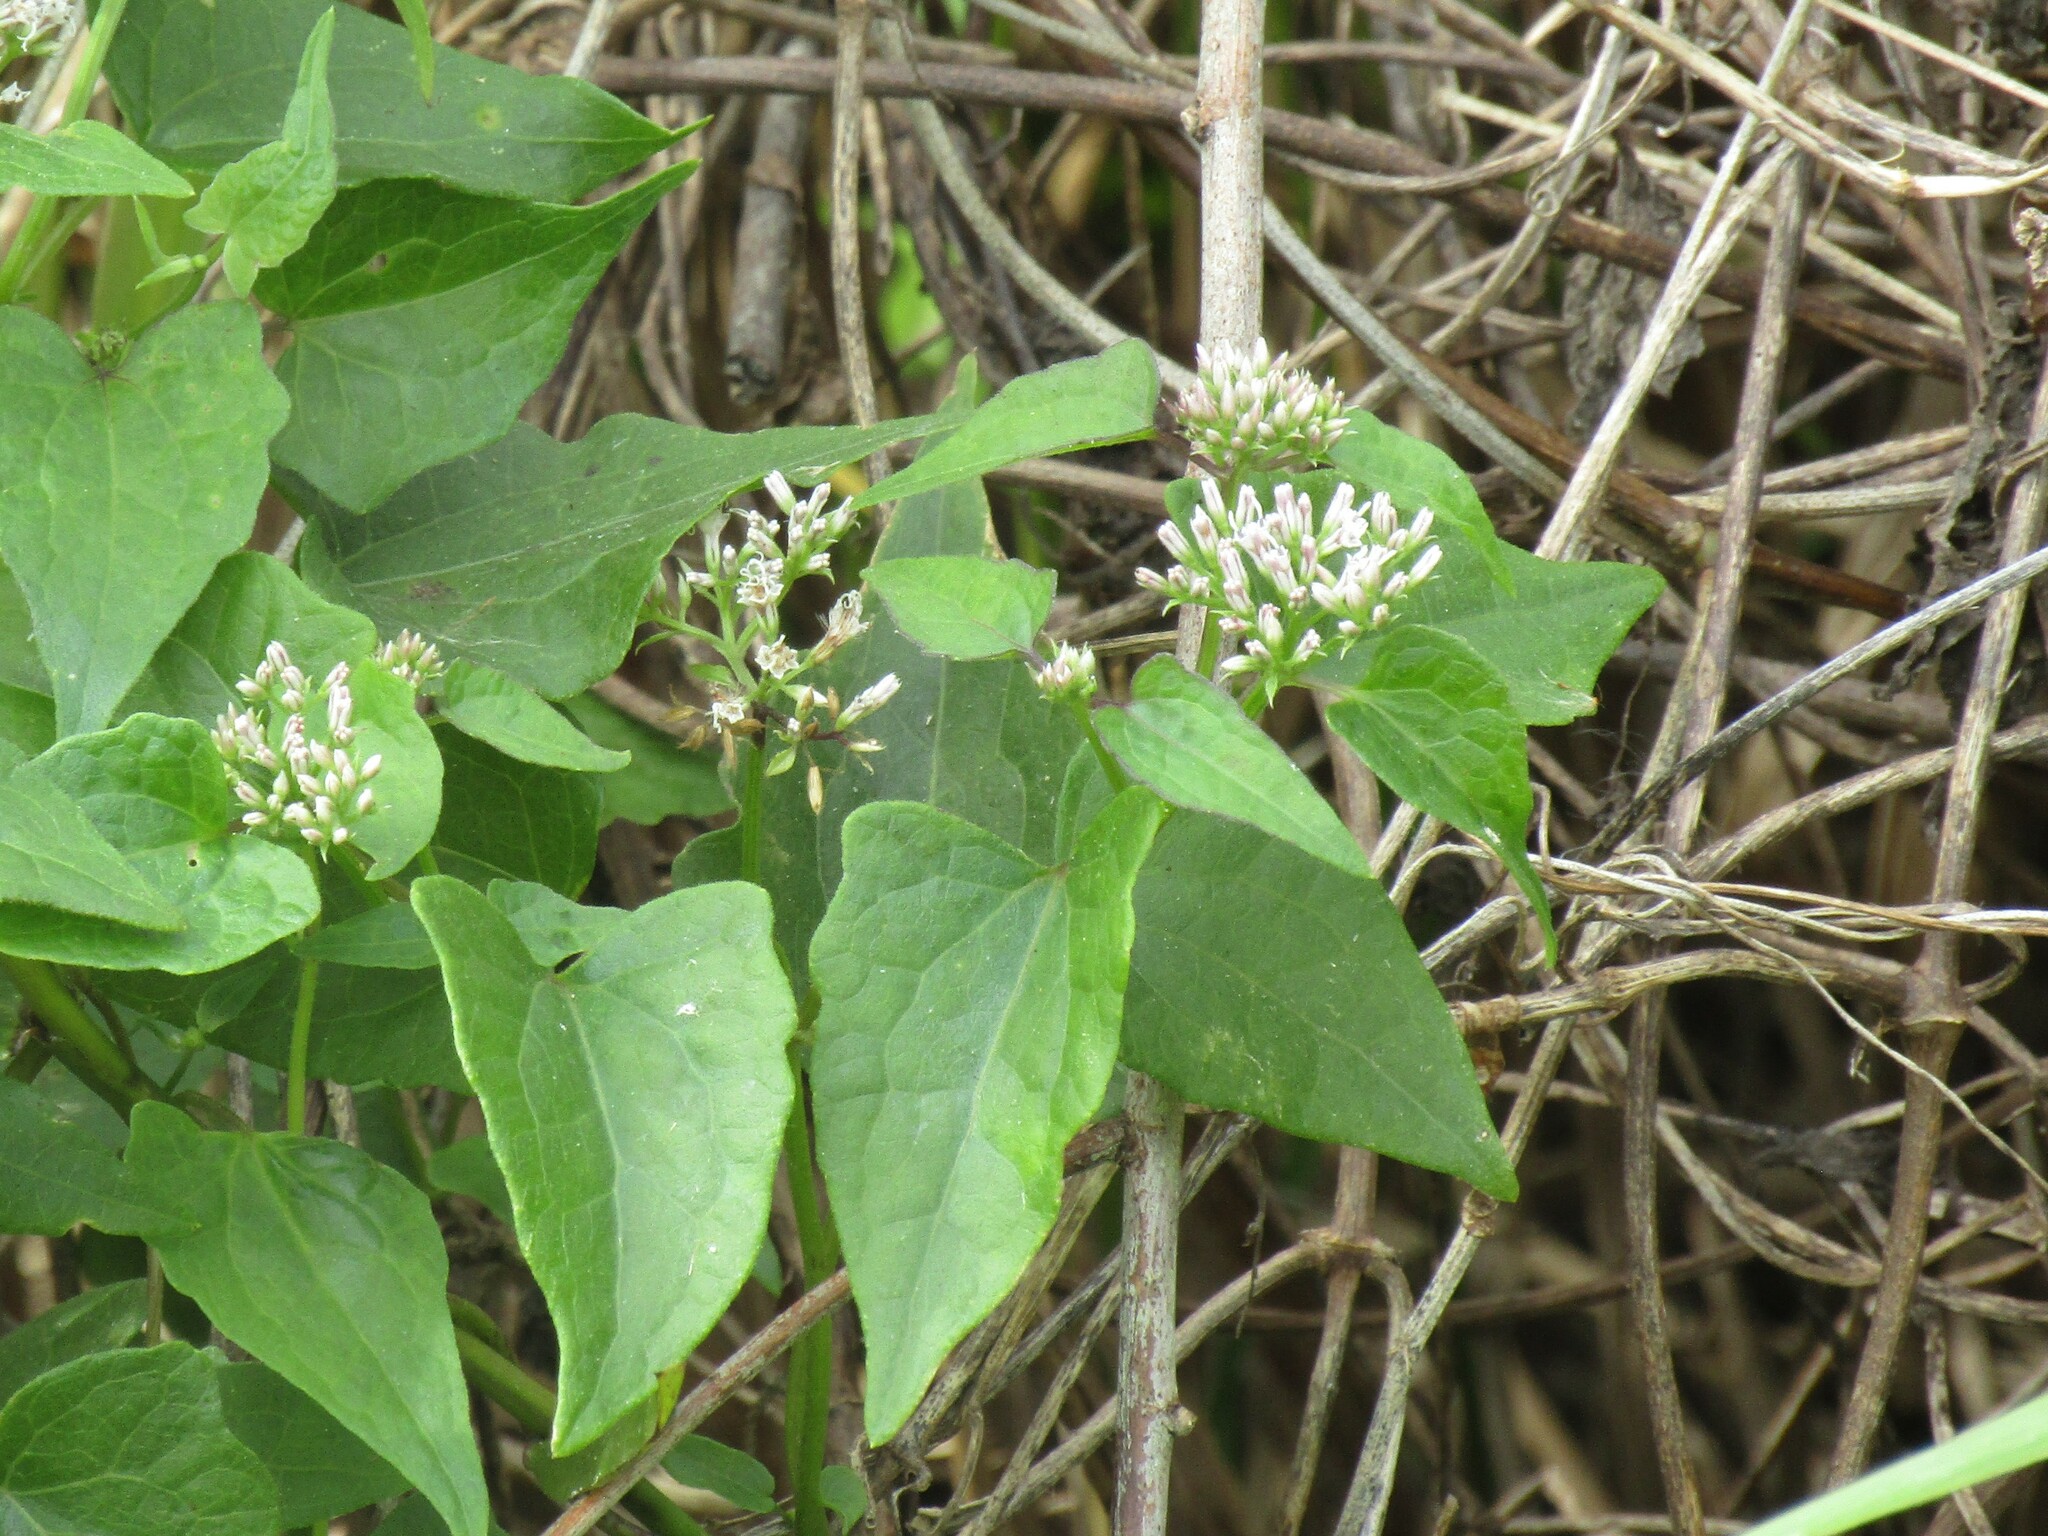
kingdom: Plantae
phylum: Tracheophyta
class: Magnoliopsida
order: Asterales
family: Asteraceae
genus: Mikania
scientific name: Mikania scandens
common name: Climbing hempvine
